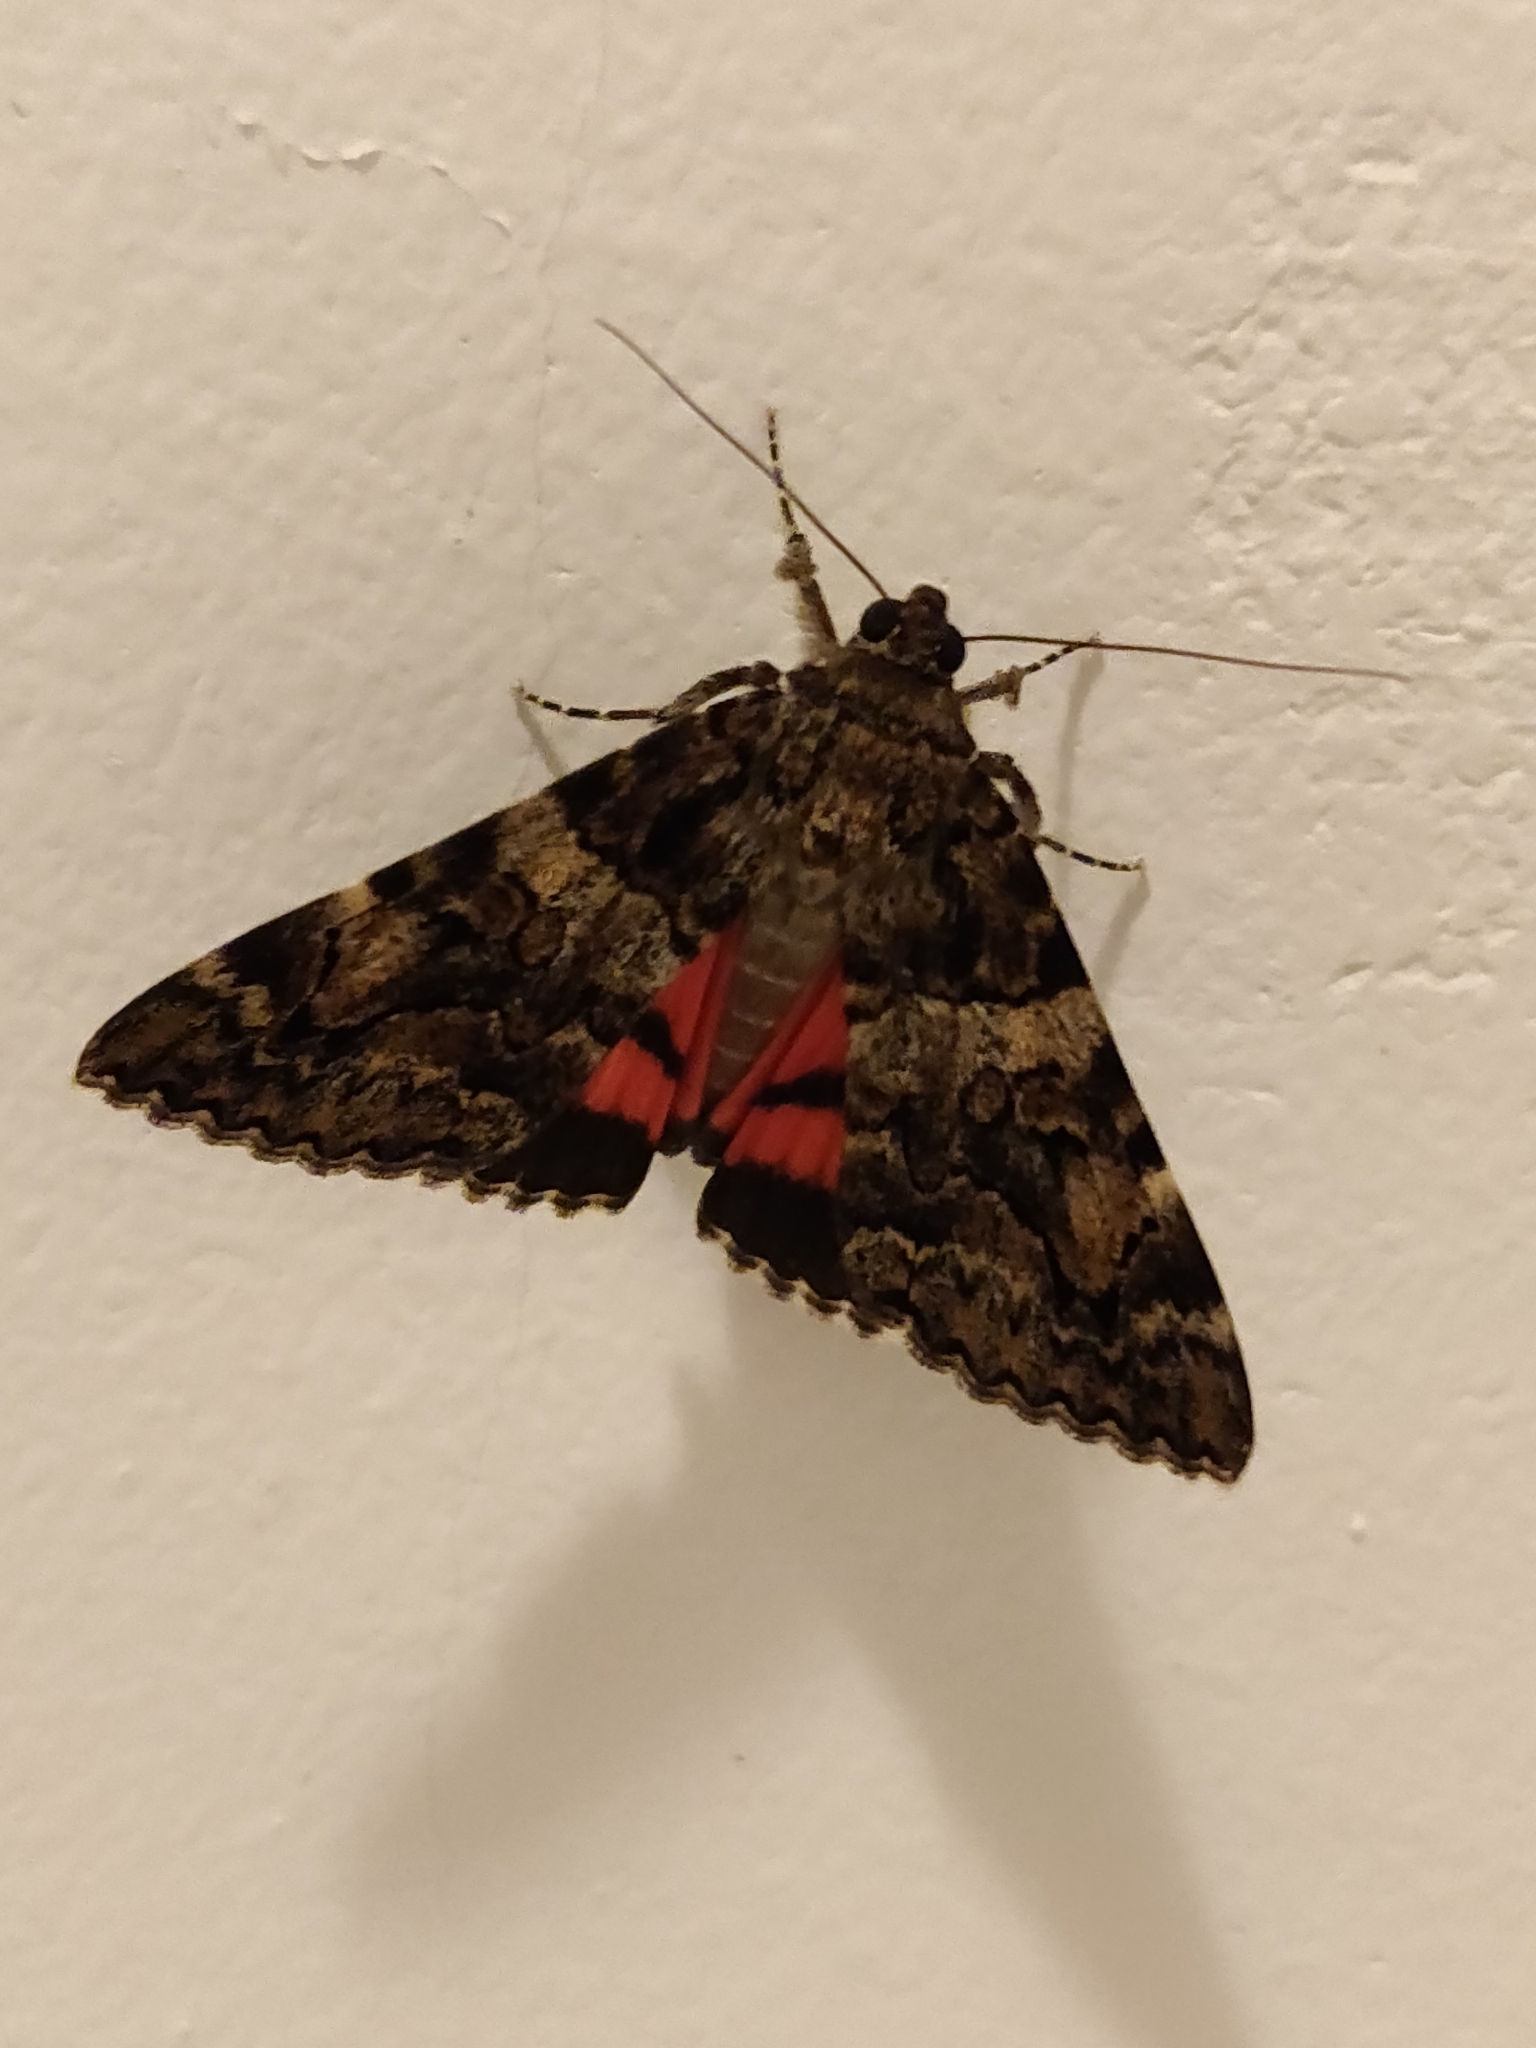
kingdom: Animalia
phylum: Arthropoda
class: Insecta
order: Lepidoptera
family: Erebidae
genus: Catocala
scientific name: Catocala coniuncta
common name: Minsmere crimson underwing
